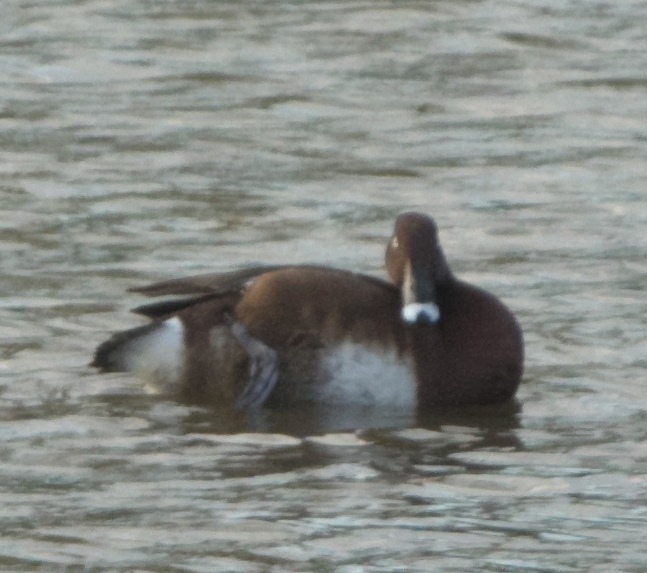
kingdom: Animalia
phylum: Chordata
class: Aves
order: Anseriformes
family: Anatidae
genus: Aythya
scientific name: Aythya australis
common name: Hardhead
